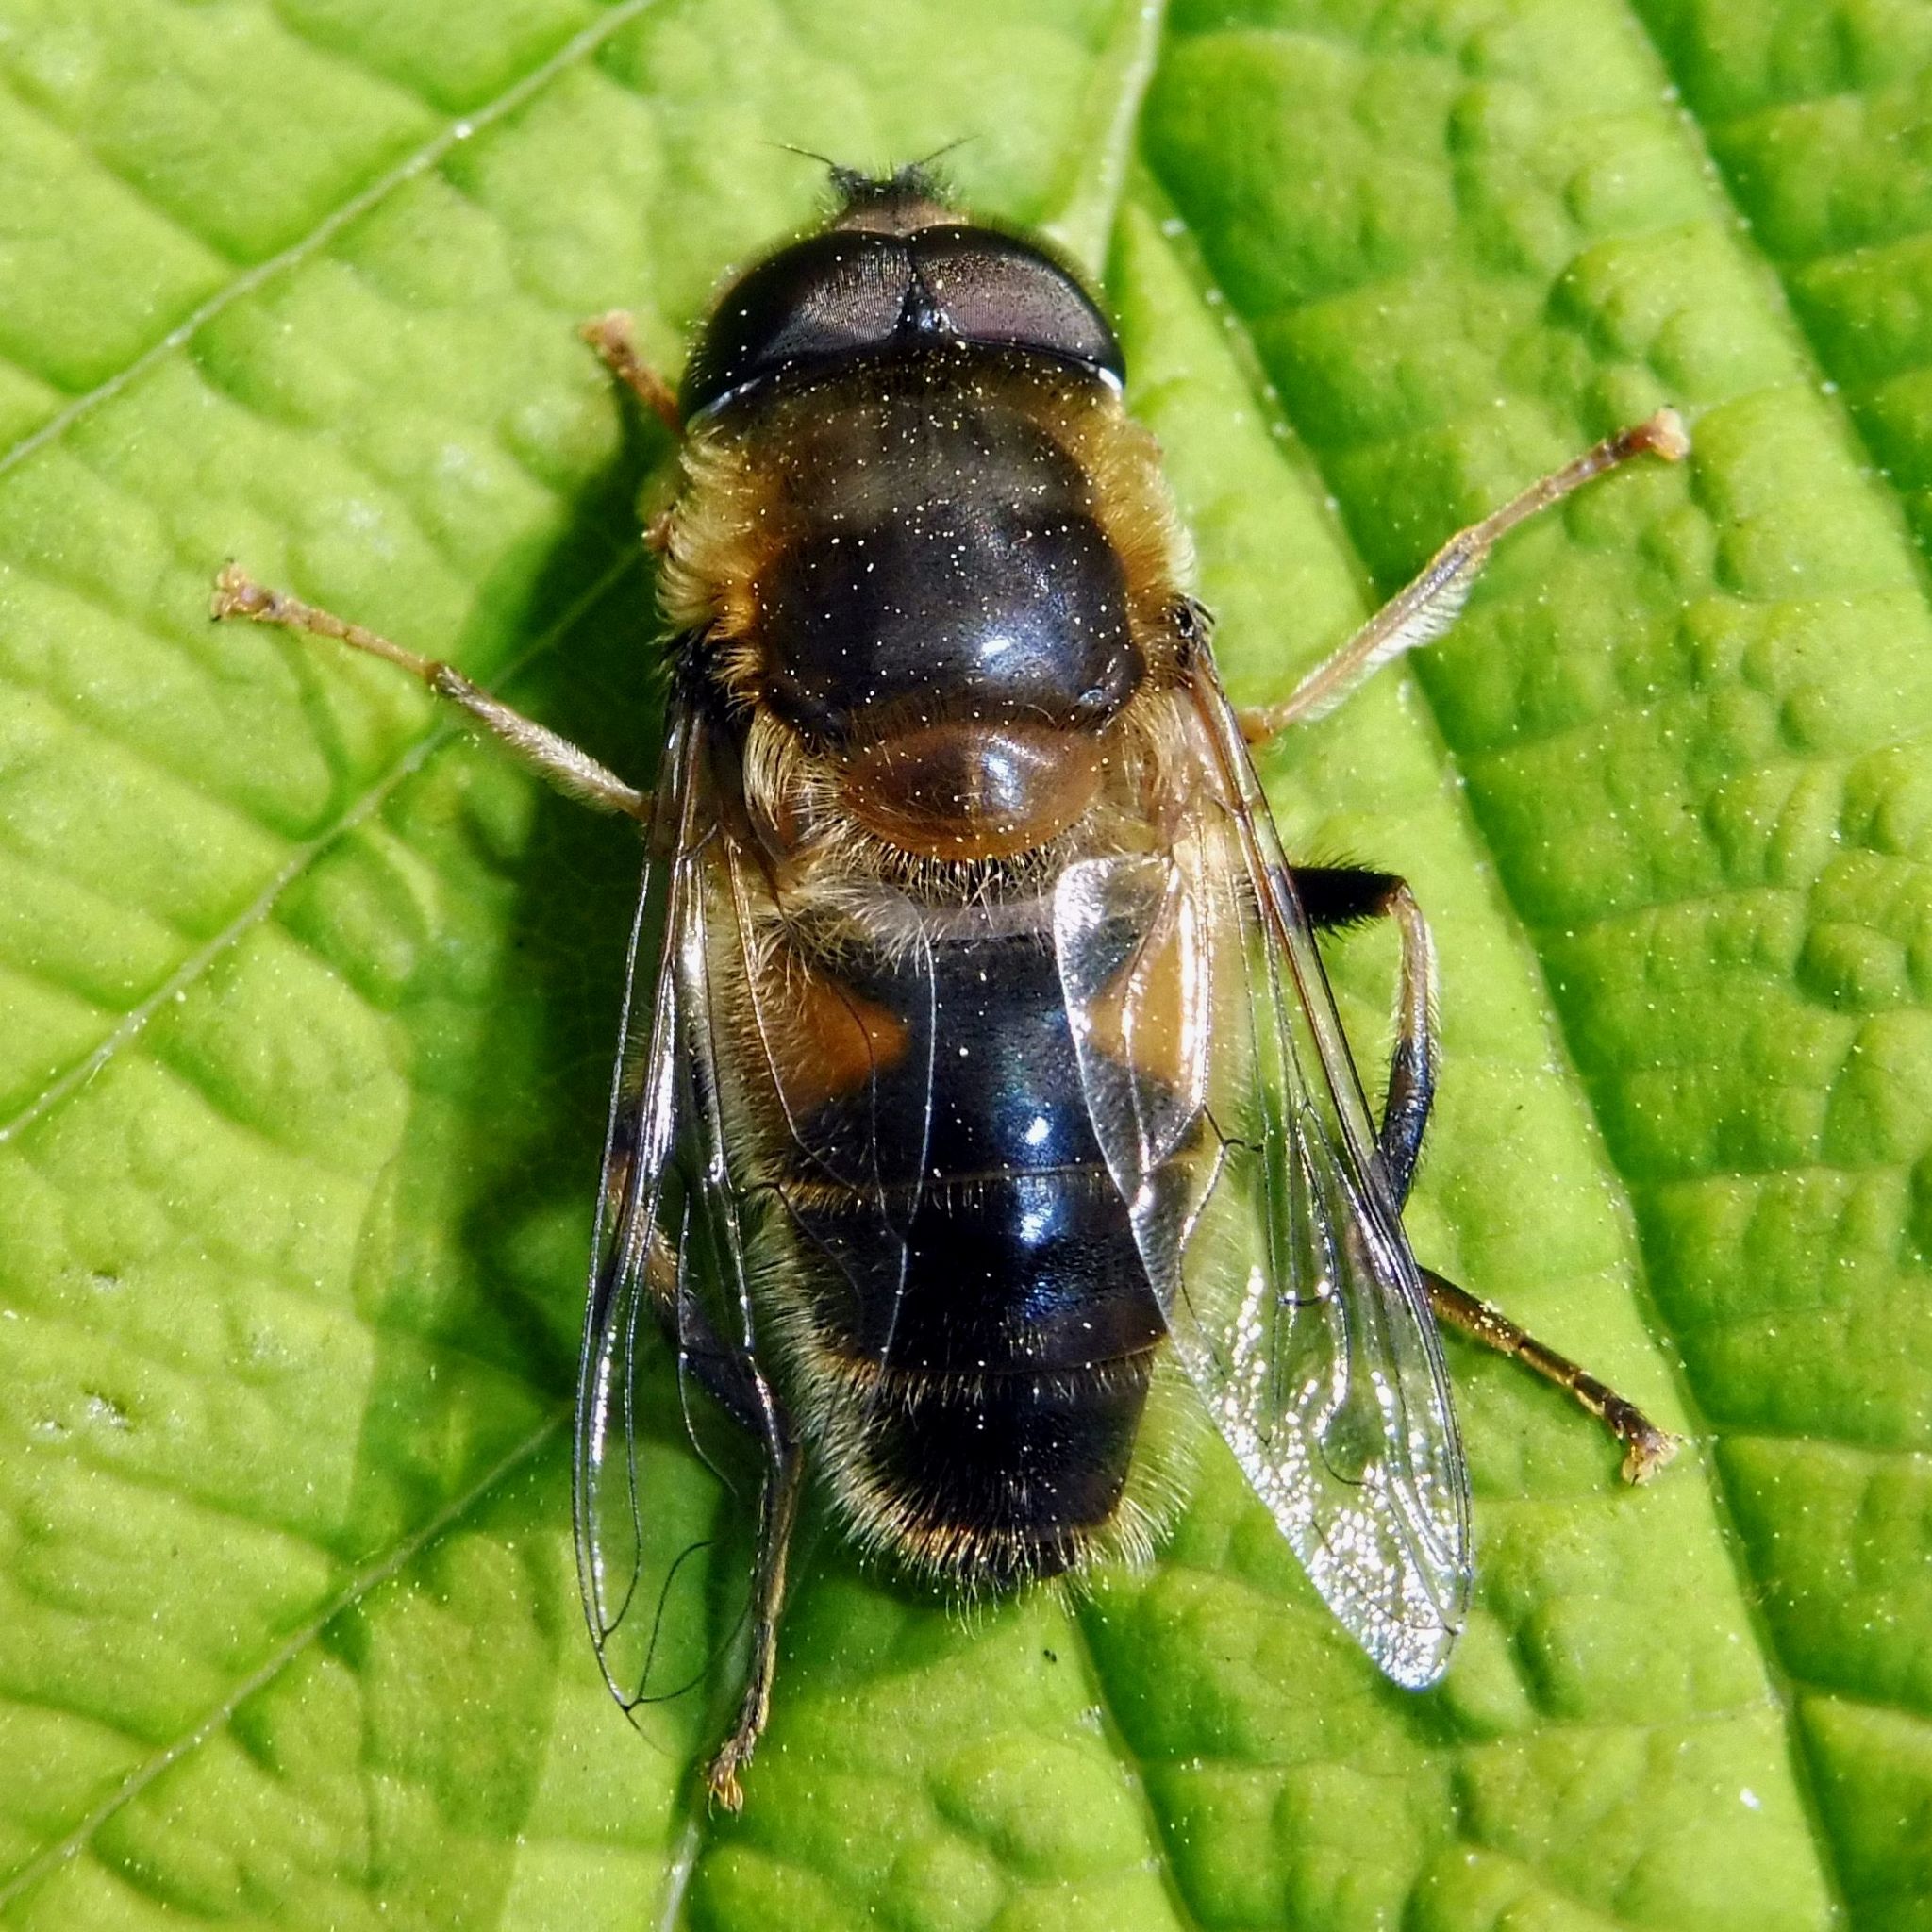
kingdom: Animalia
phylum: Arthropoda
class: Insecta
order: Diptera
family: Syrphidae
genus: Eristalis
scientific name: Eristalis pertinax
